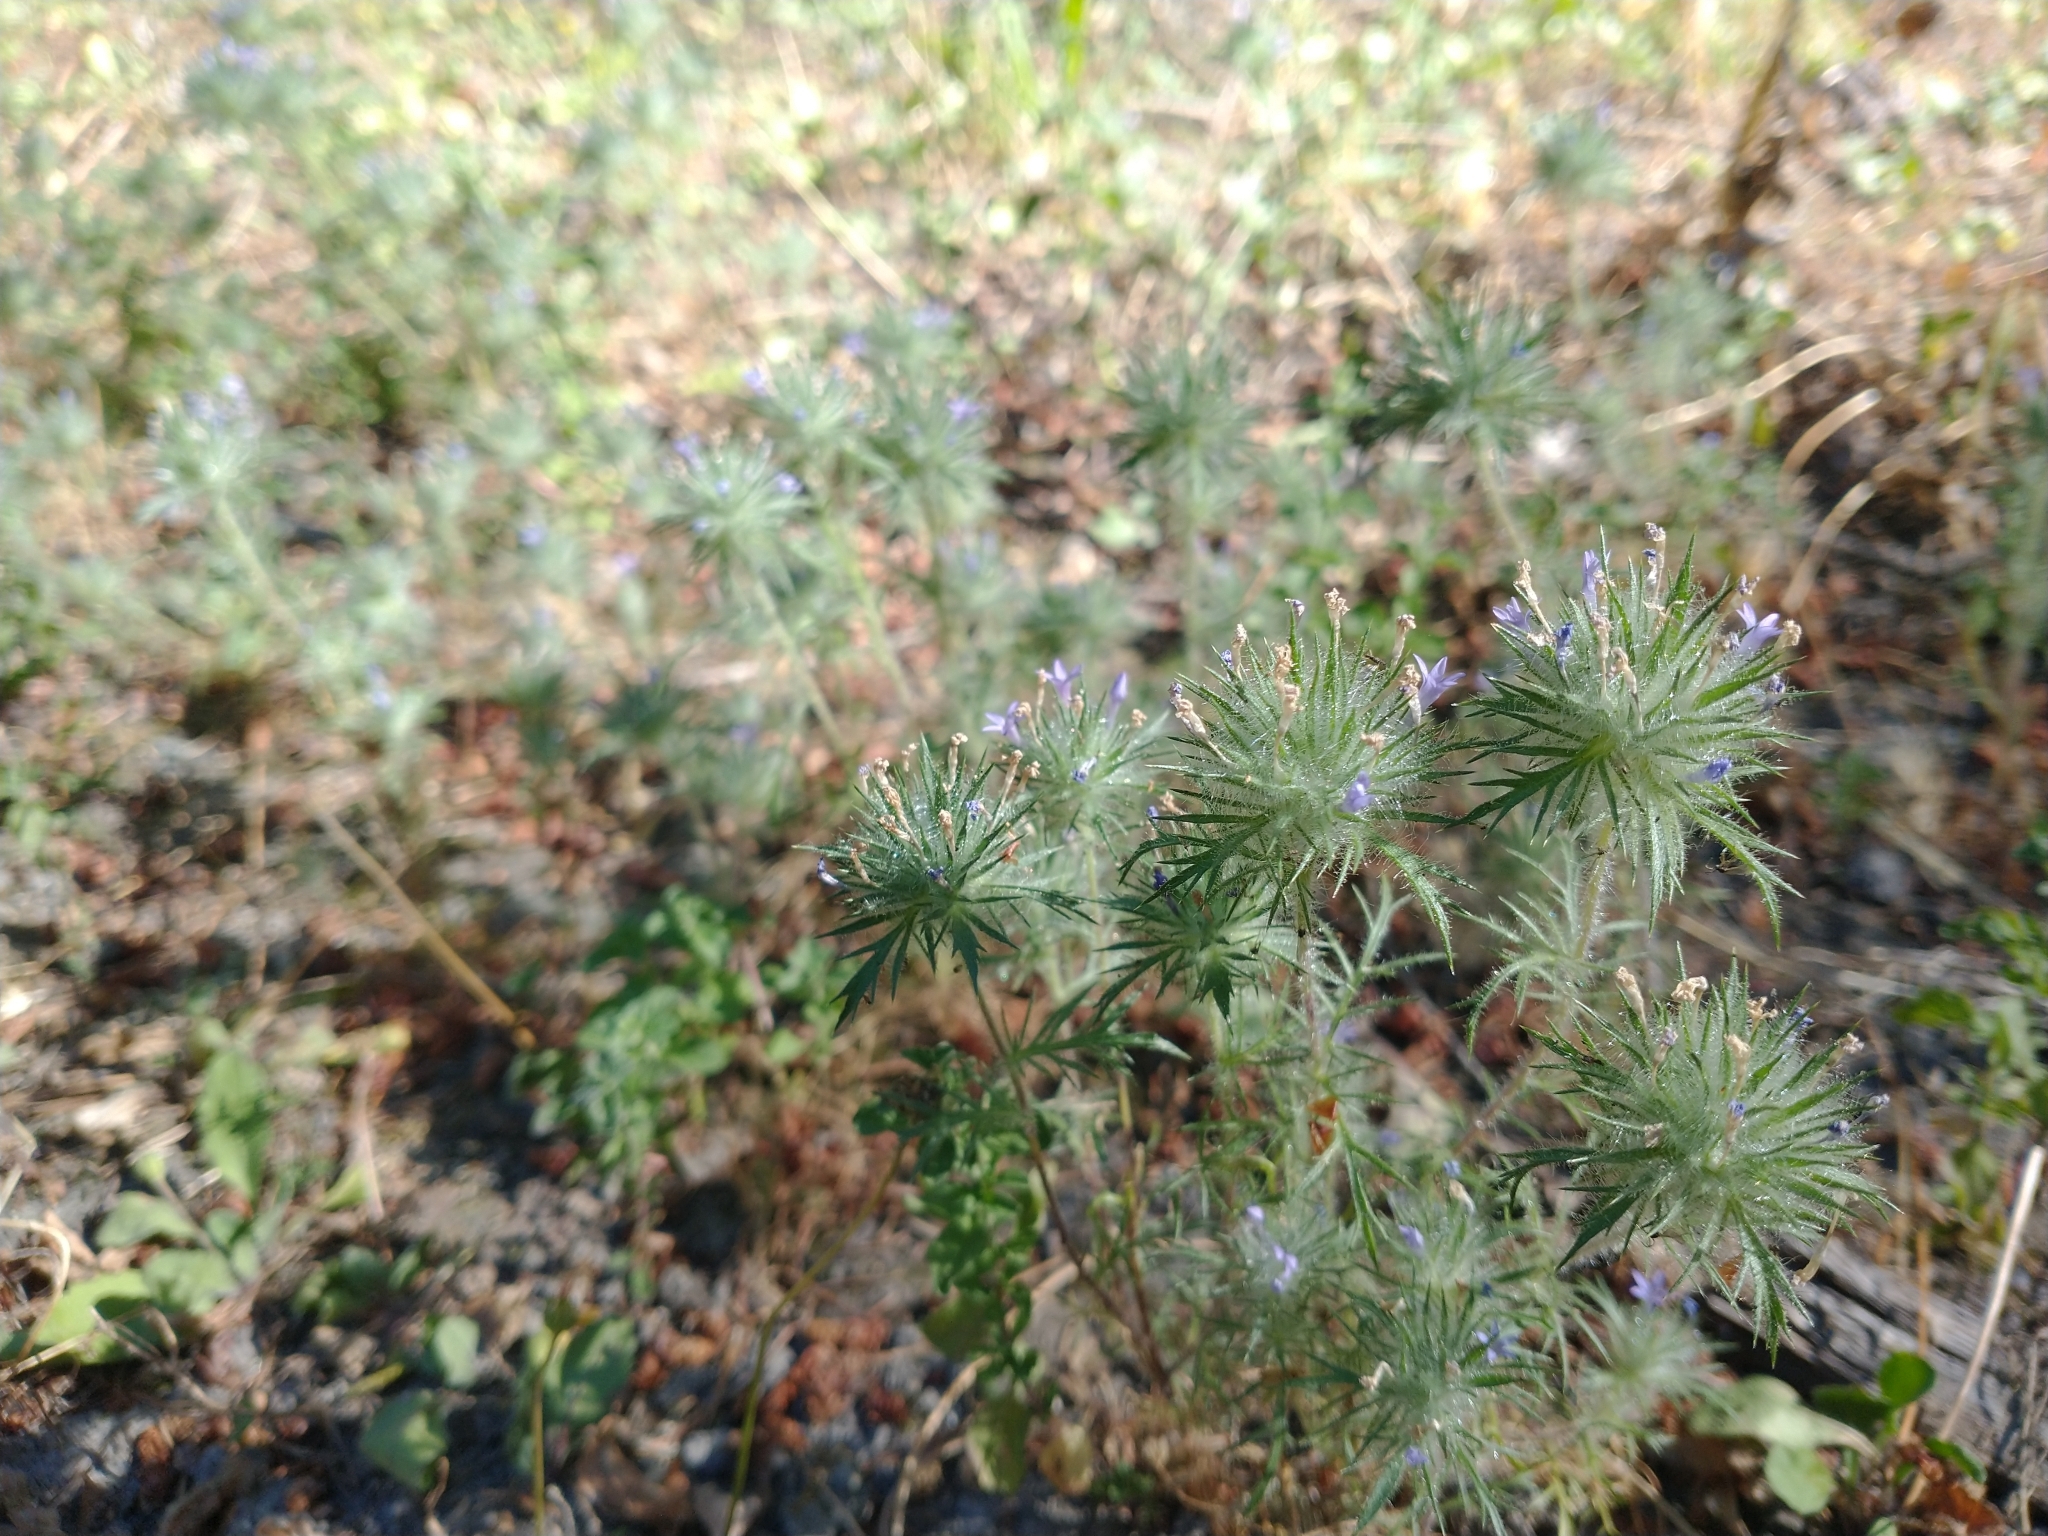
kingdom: Plantae
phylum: Tracheophyta
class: Magnoliopsida
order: Ericales
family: Polemoniaceae
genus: Navarretia
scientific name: Navarretia squarrosa
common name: Skunkweed
